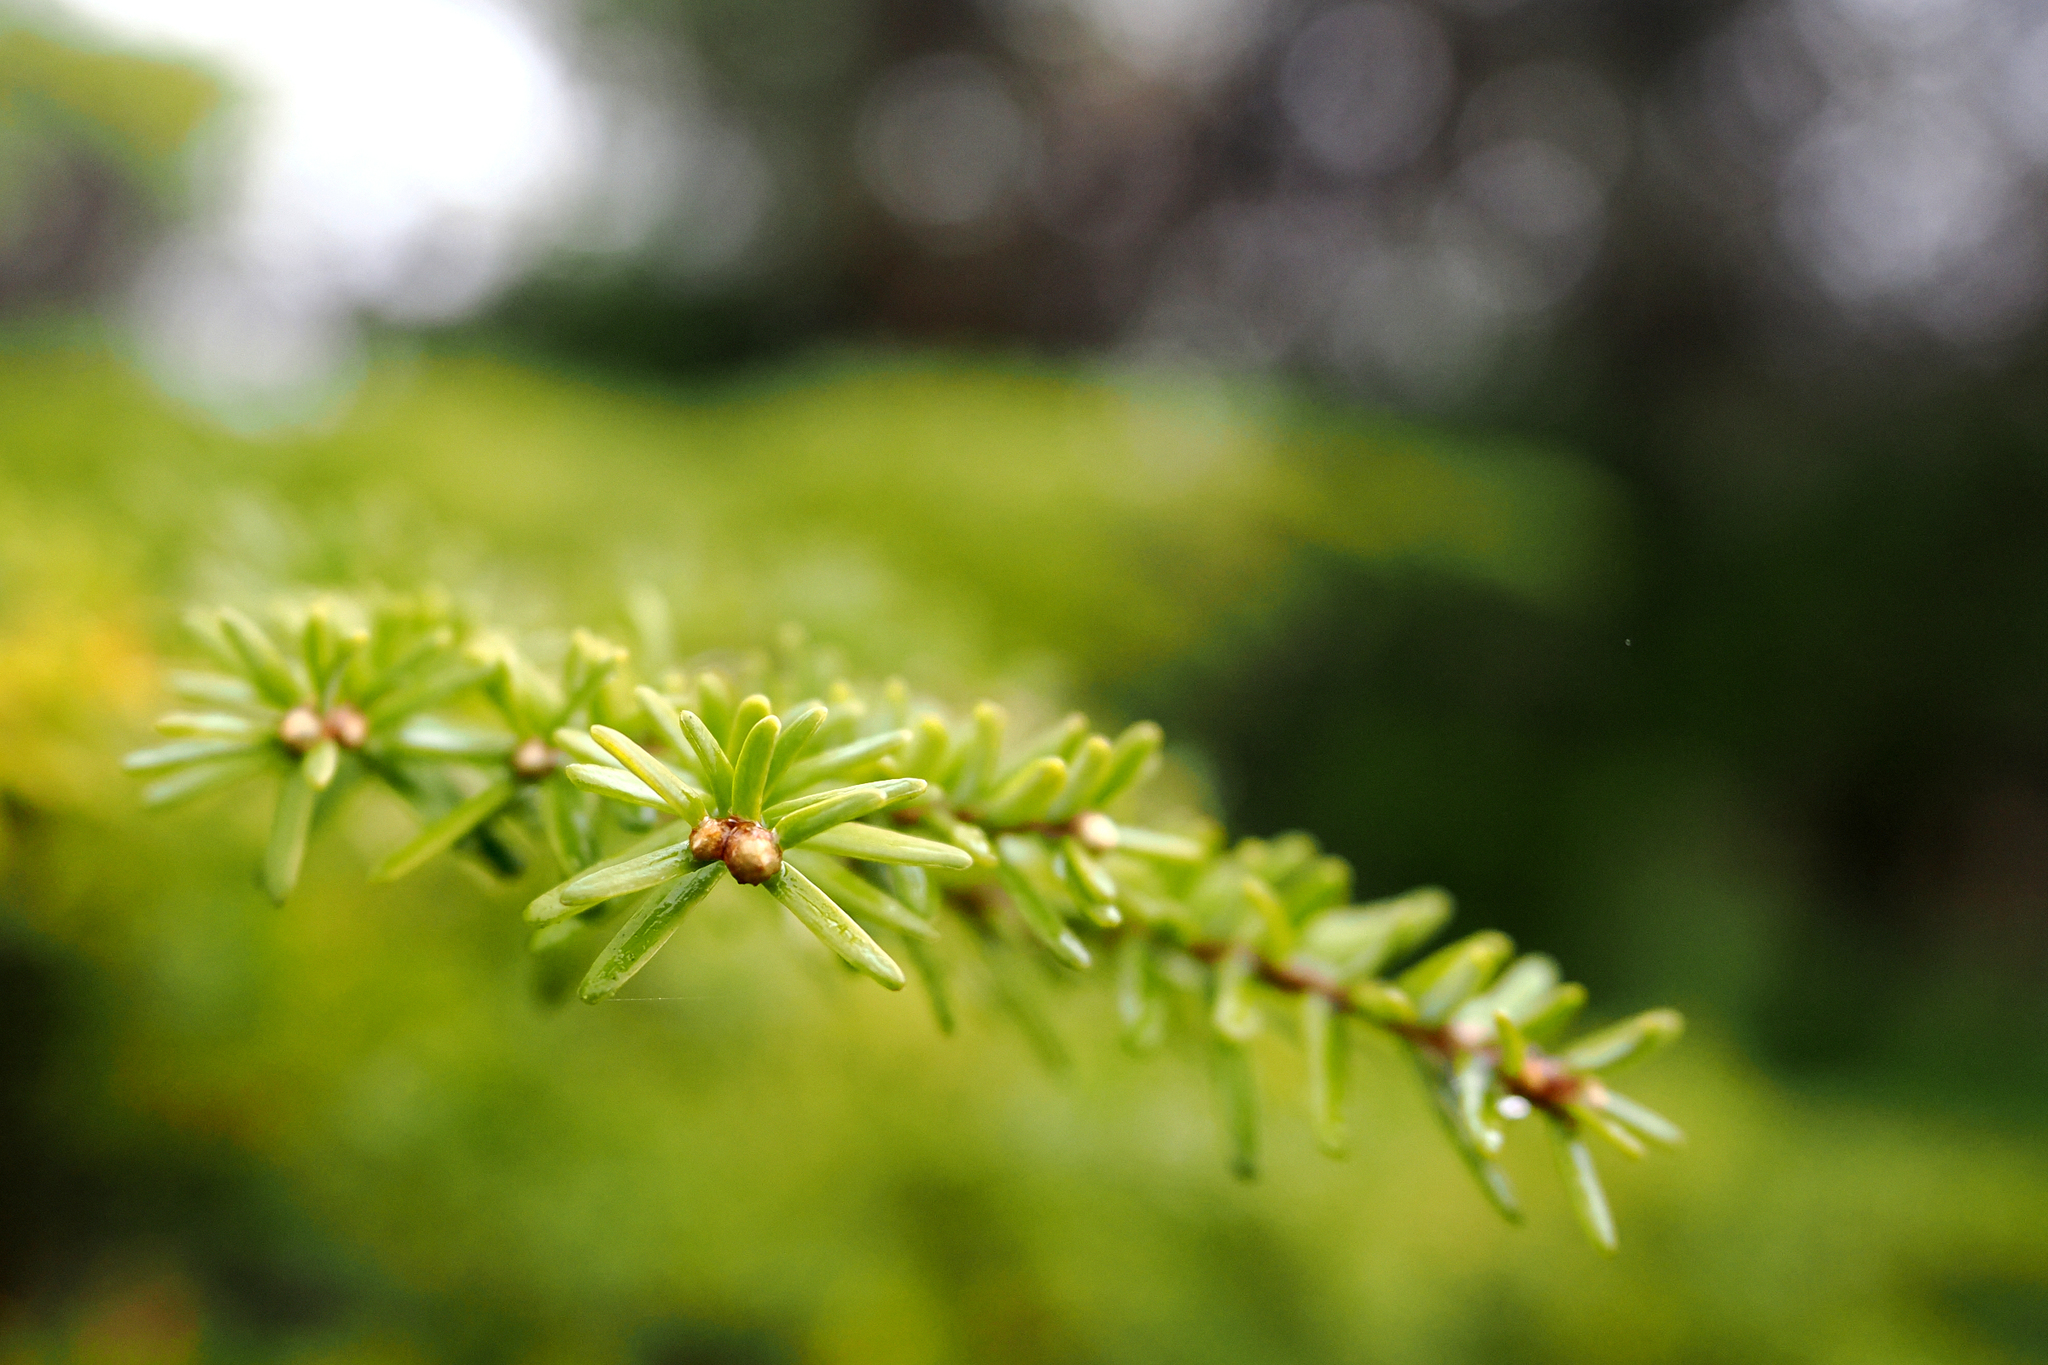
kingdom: Plantae
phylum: Tracheophyta
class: Pinopsida
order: Pinales
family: Pinaceae
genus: Tsuga
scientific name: Tsuga heterophylla
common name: Western hemlock
